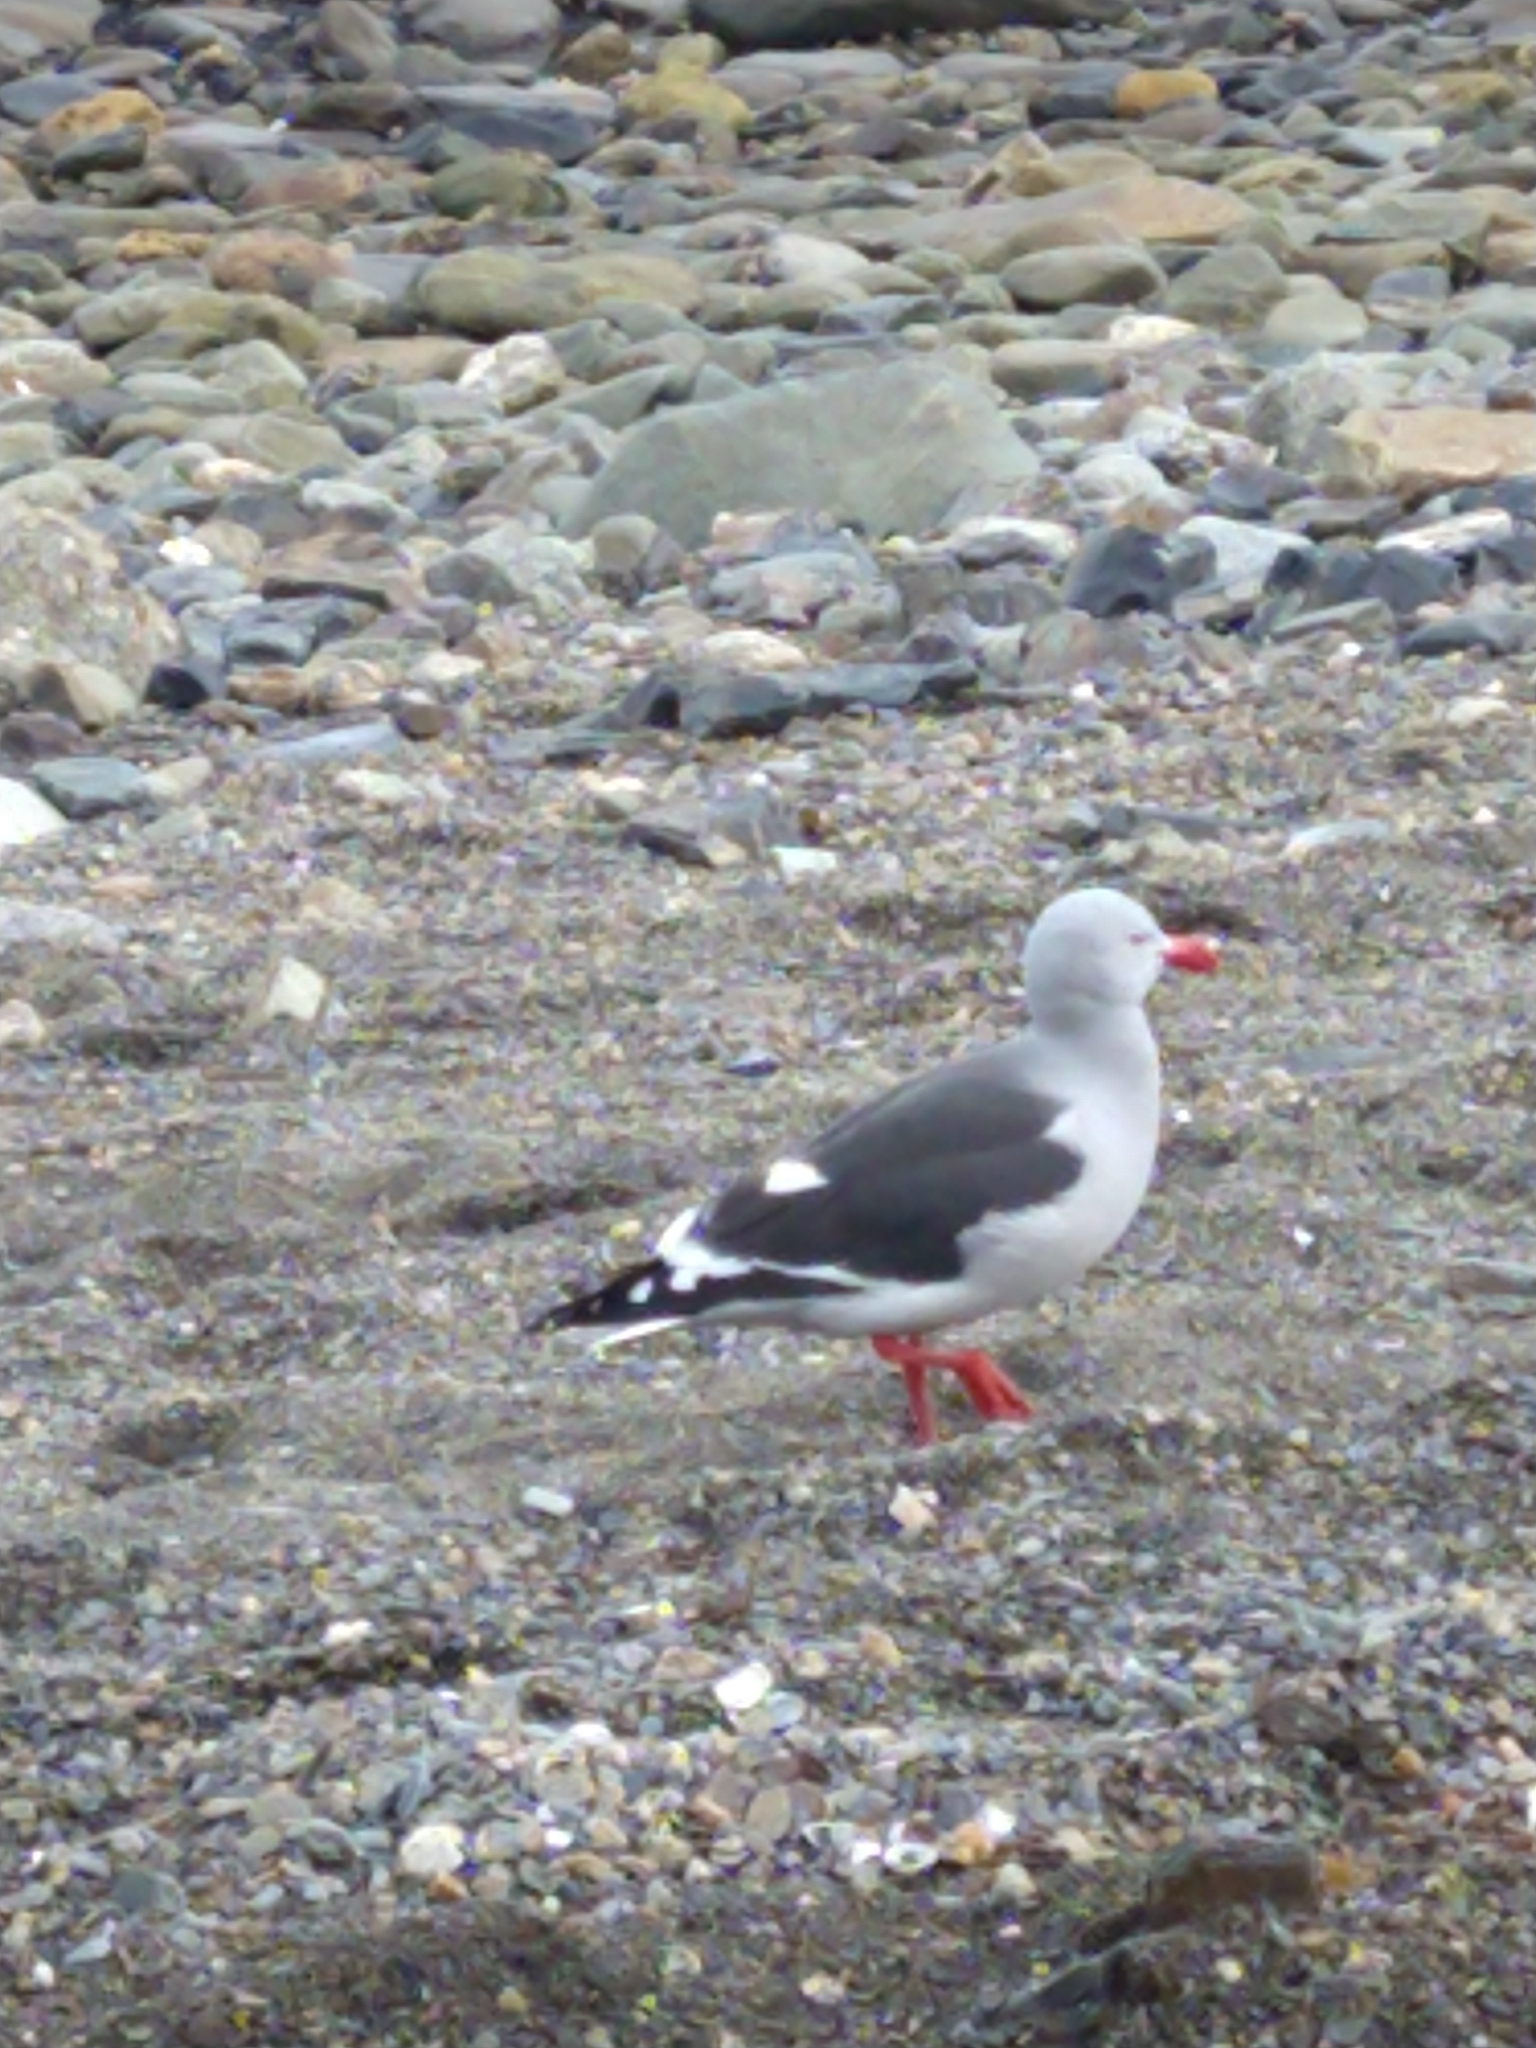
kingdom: Animalia
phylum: Chordata
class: Aves
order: Charadriiformes
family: Laridae
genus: Leucophaeus
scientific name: Leucophaeus scoresbii
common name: Dolphin gull
